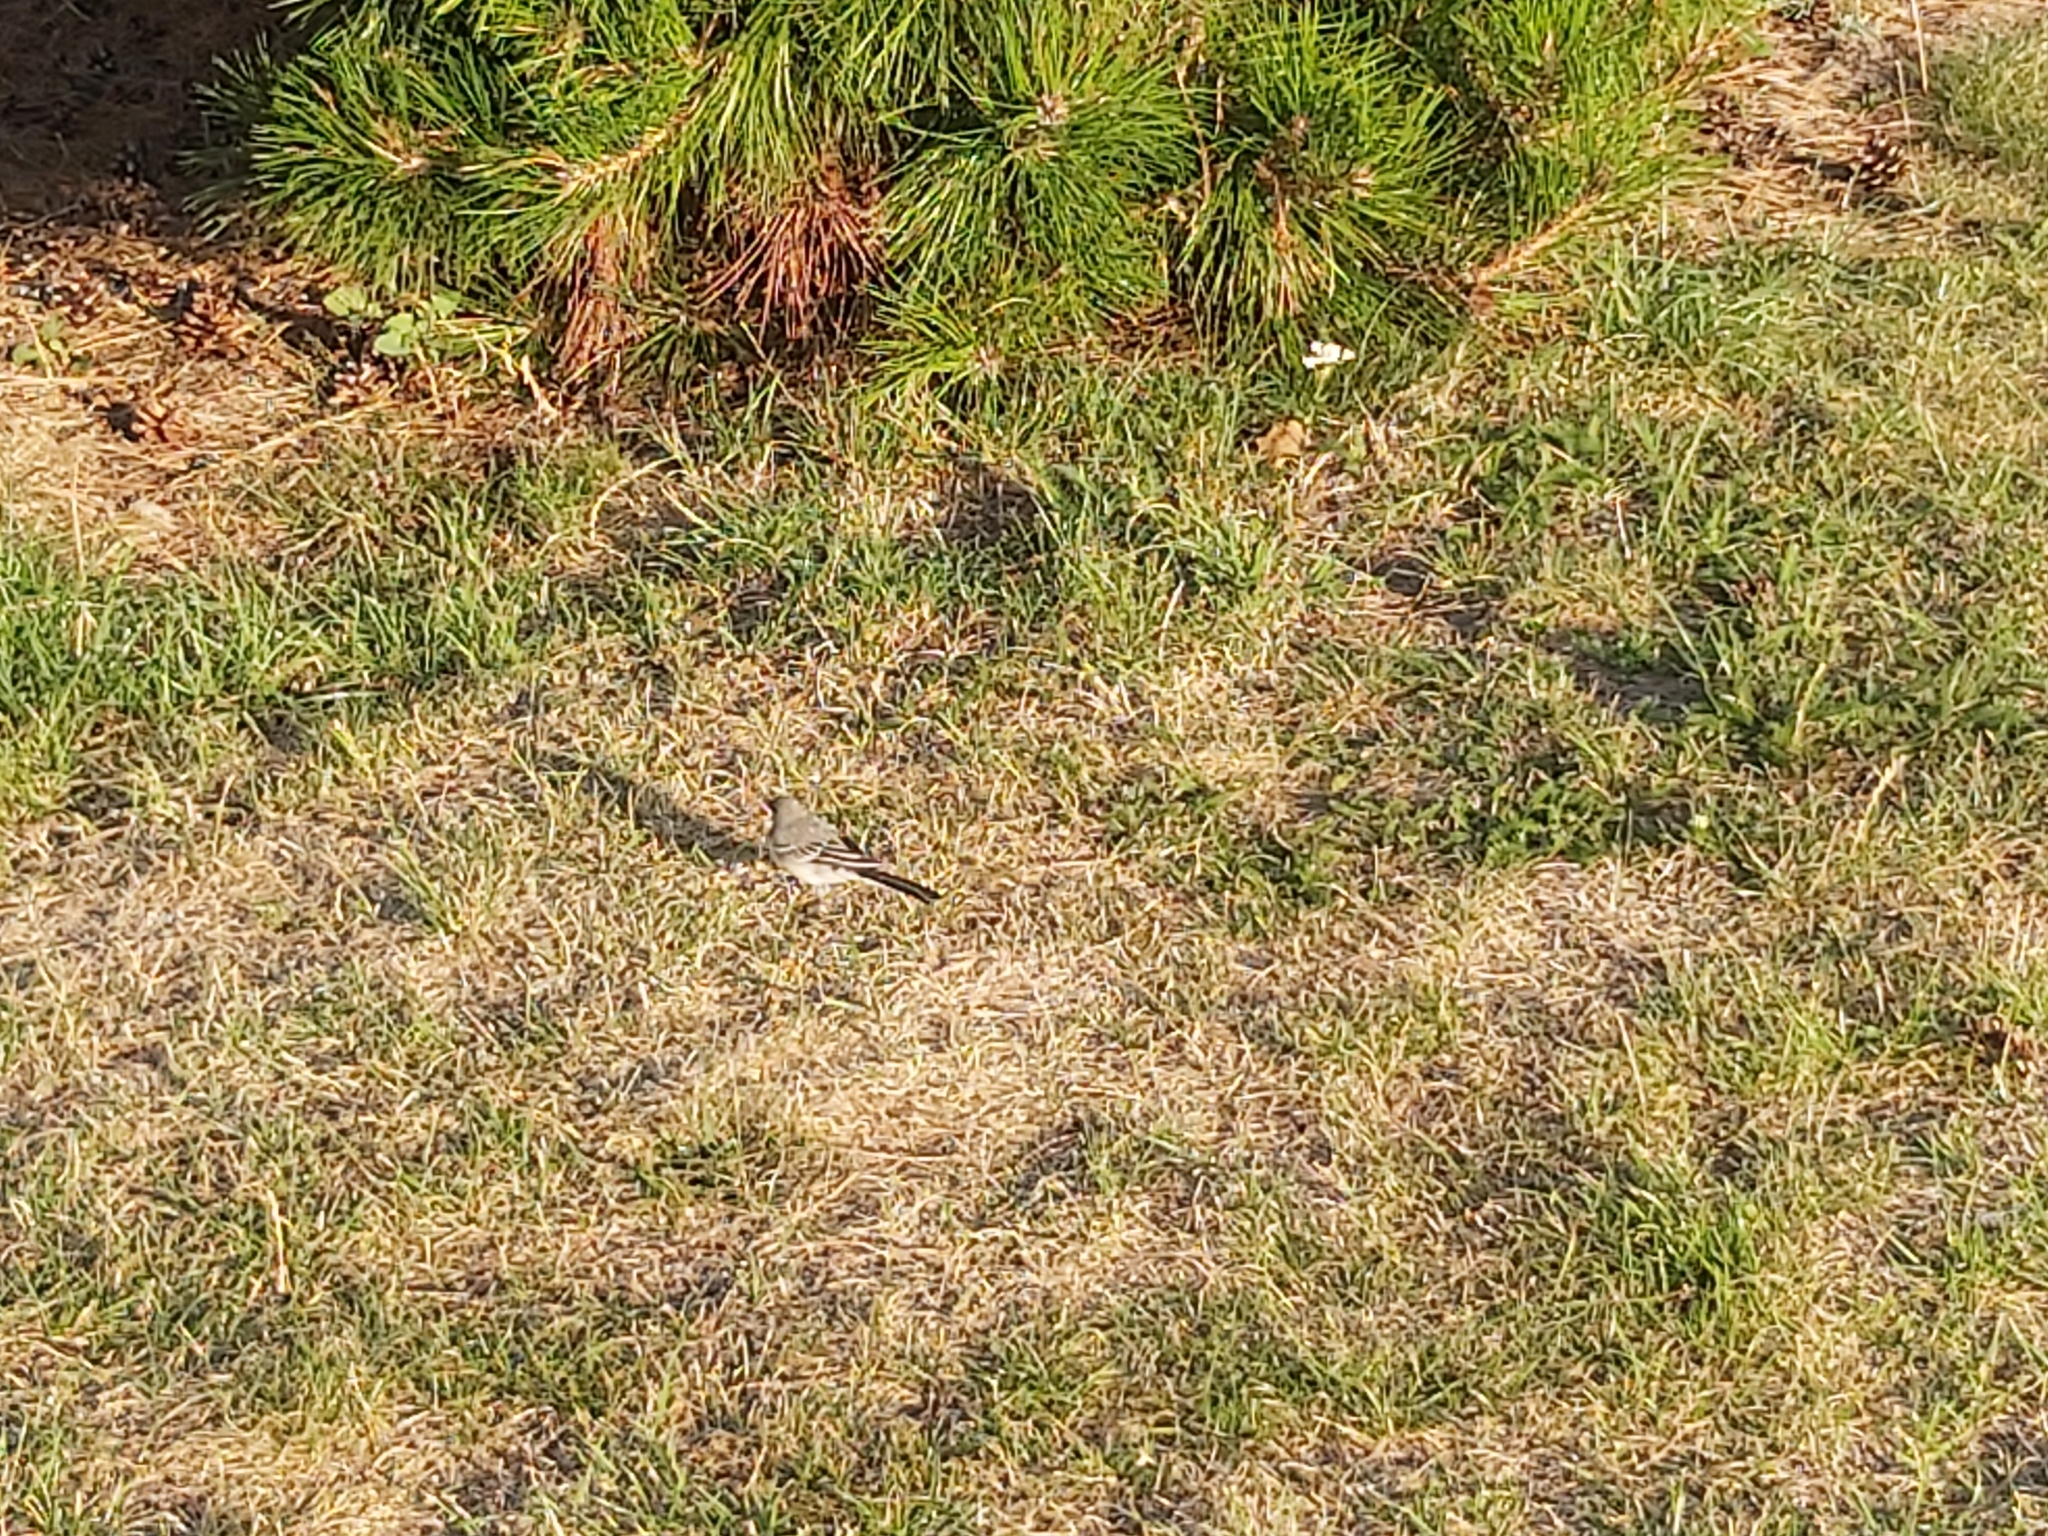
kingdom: Animalia
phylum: Chordata
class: Aves
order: Passeriformes
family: Motacillidae
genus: Motacilla
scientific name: Motacilla alba
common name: White wagtail
